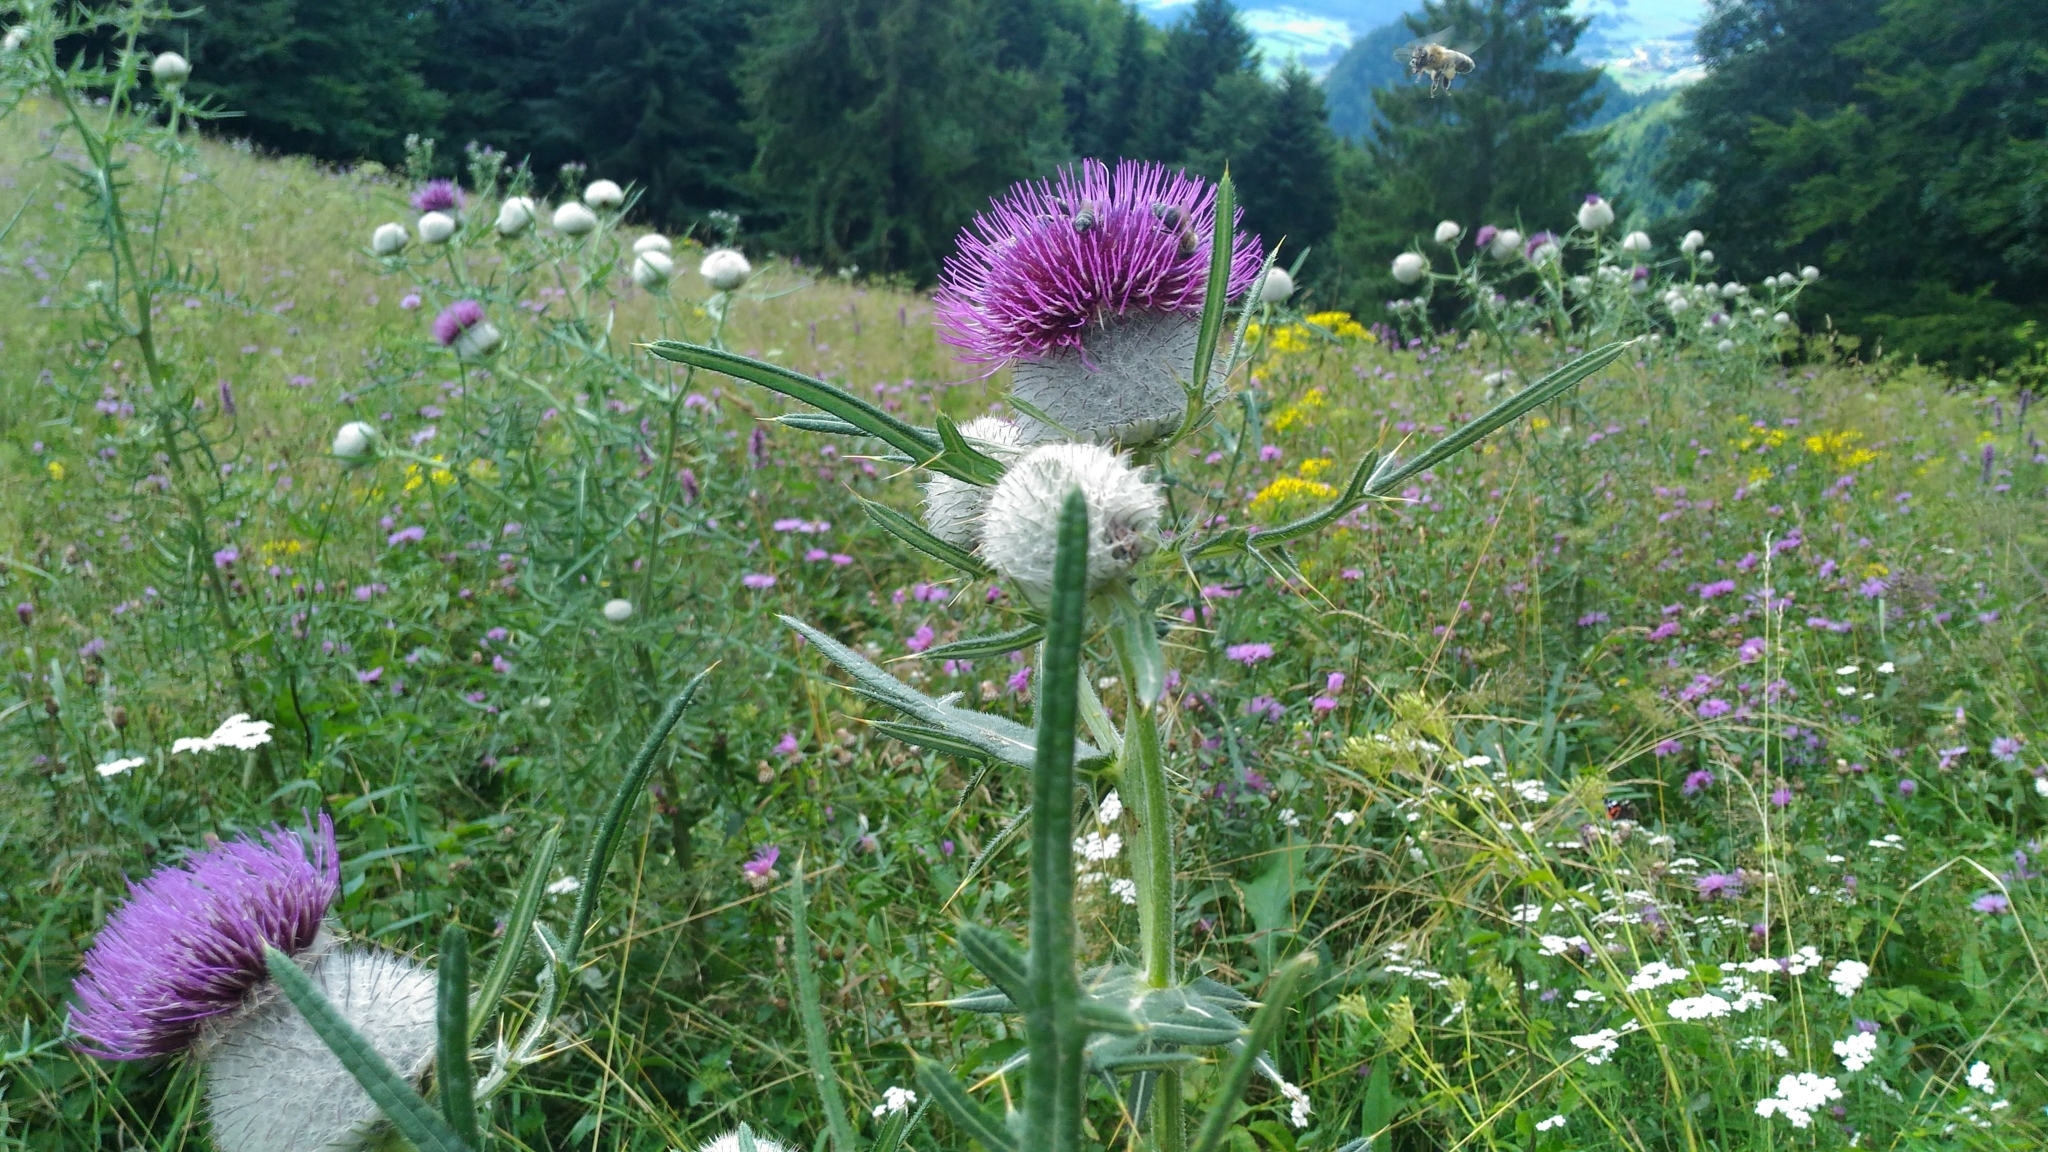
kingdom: Plantae
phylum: Tracheophyta
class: Magnoliopsida
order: Asterales
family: Asteraceae
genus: Lophiolepis
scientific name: Lophiolepis eriophora
